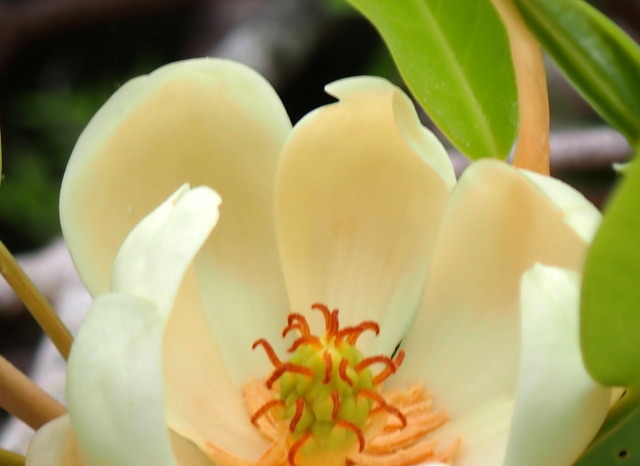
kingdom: Plantae
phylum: Tracheophyta
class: Magnoliopsida
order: Magnoliales
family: Magnoliaceae
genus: Magnolia
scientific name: Magnolia virginiana
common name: Swamp bay
